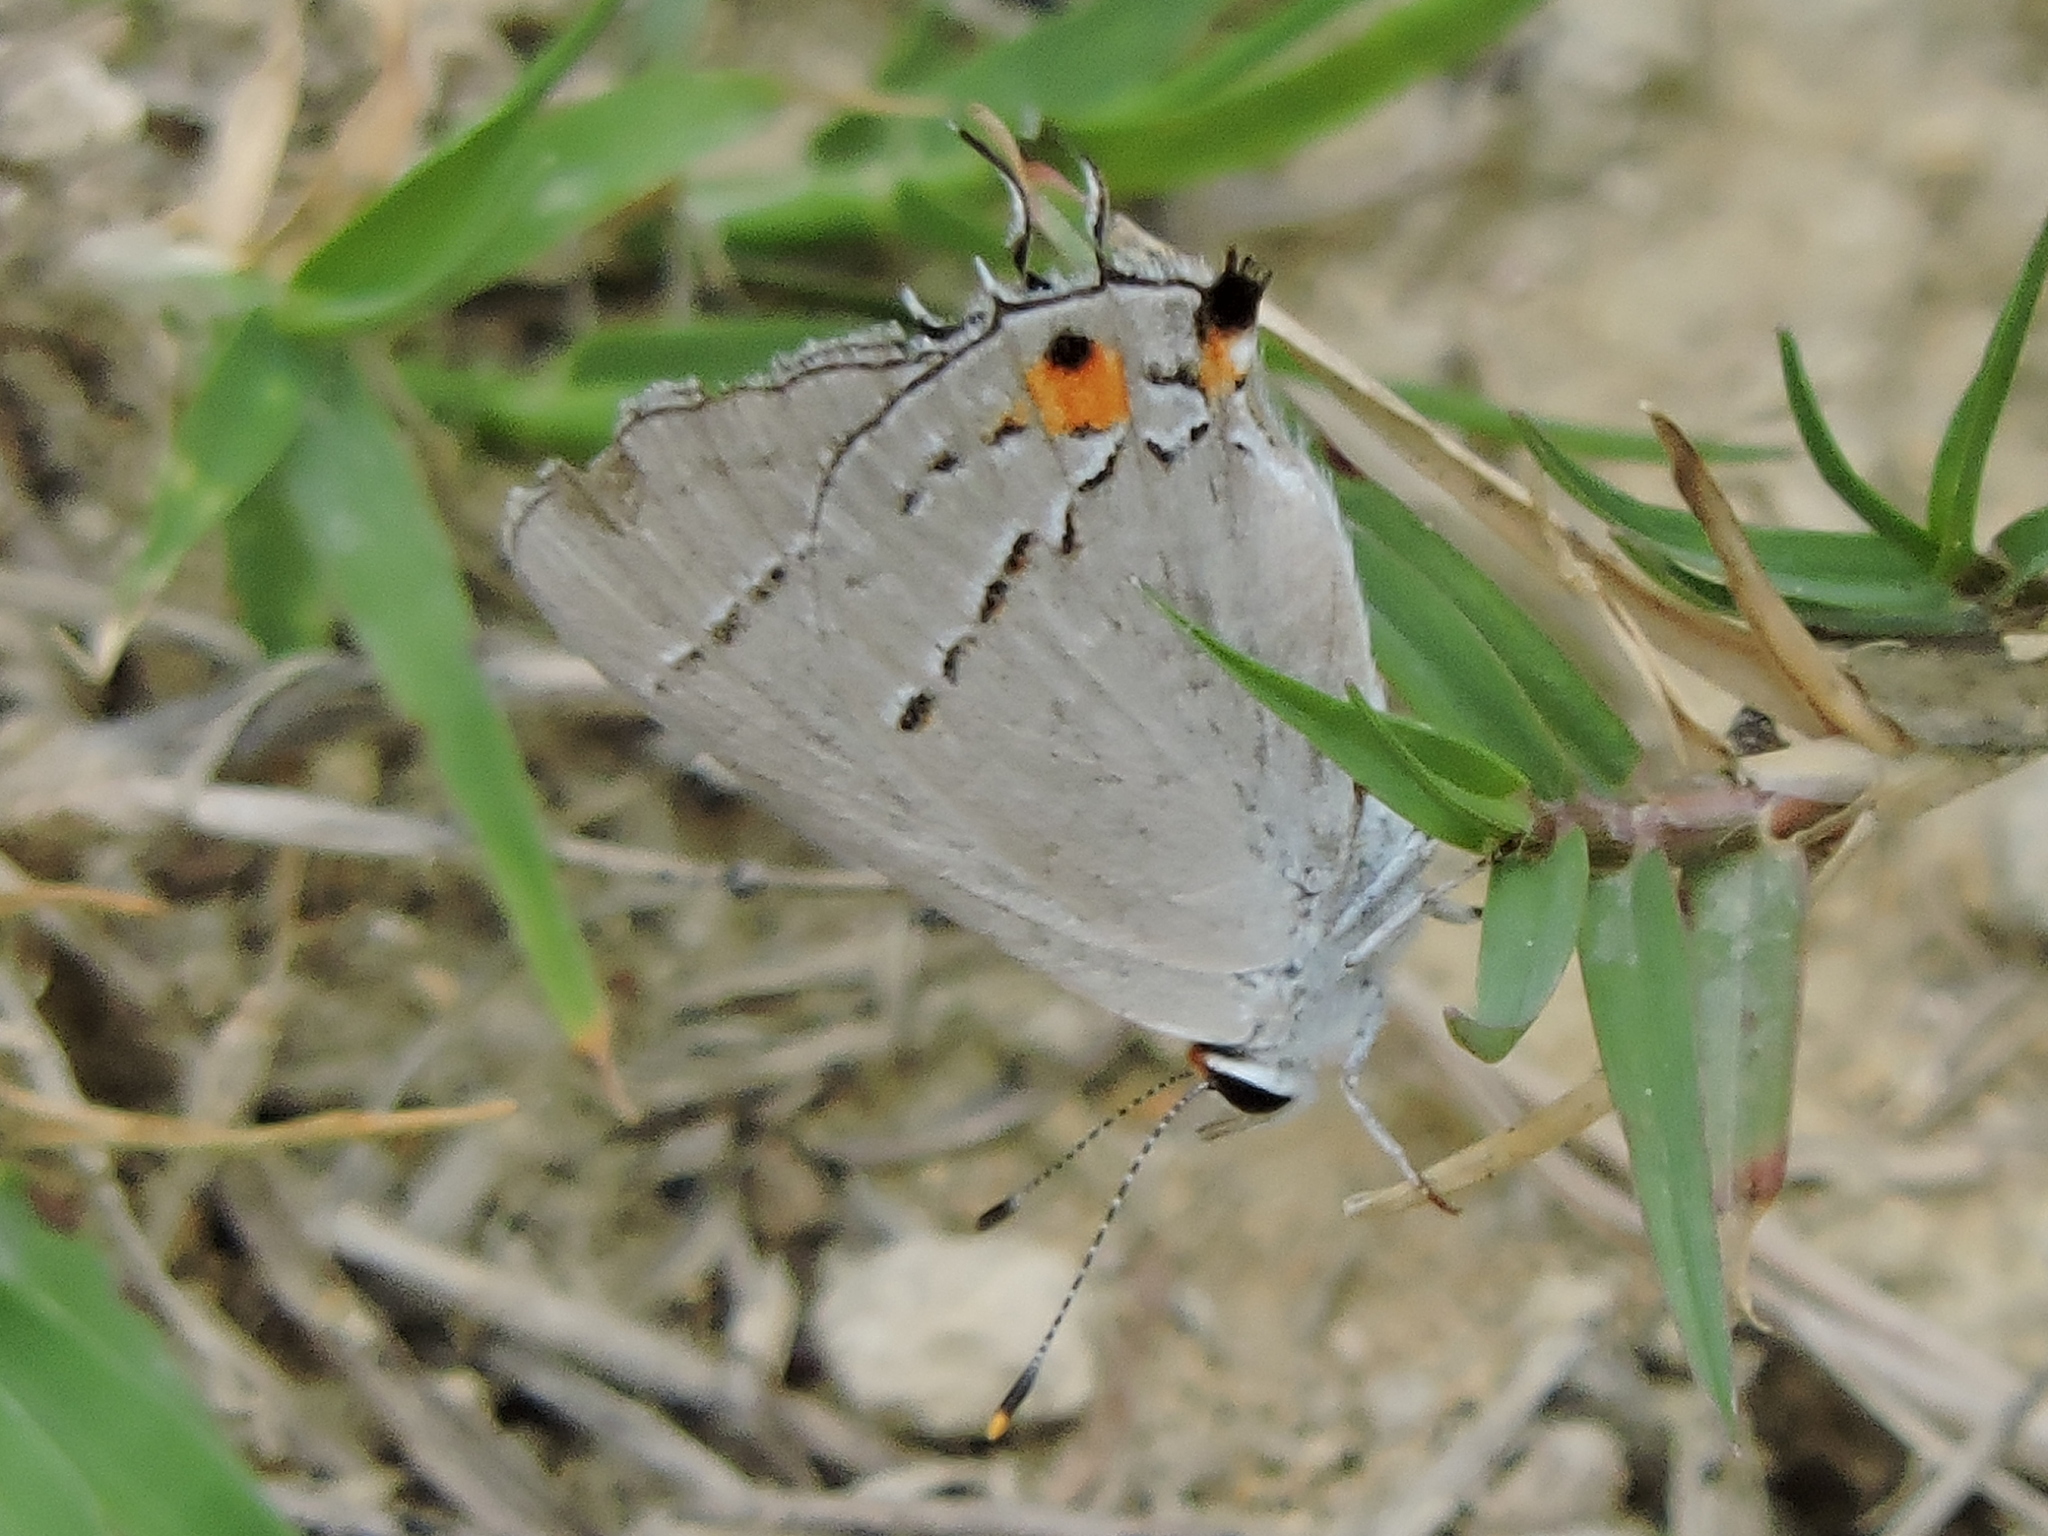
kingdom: Animalia
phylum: Arthropoda
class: Insecta
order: Lepidoptera
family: Lycaenidae
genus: Strymon
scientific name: Strymon melinus
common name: Gray hairstreak
